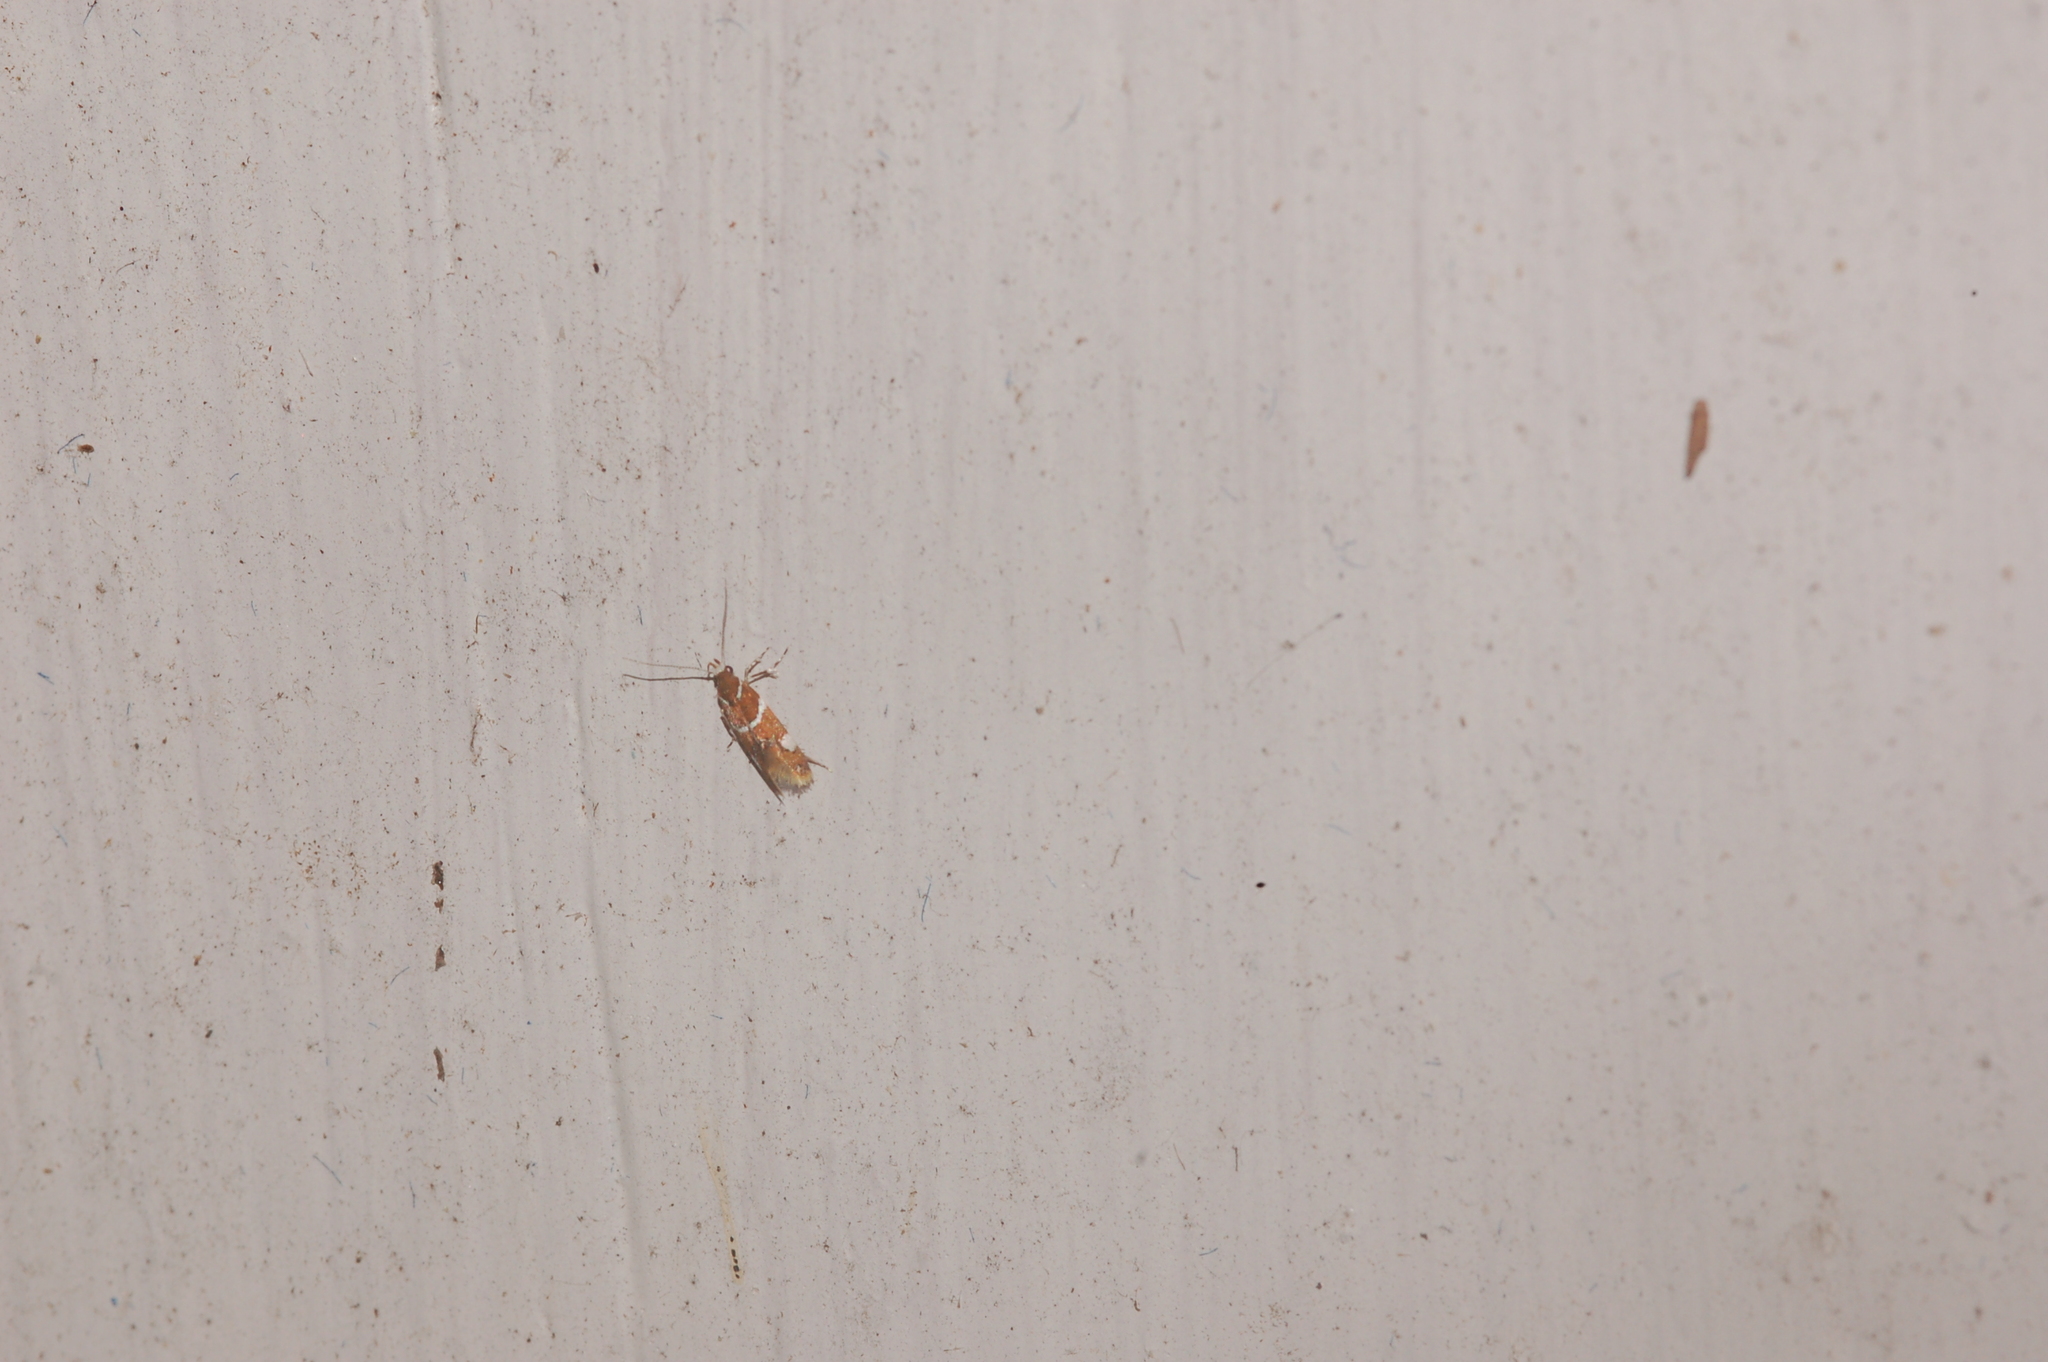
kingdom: Animalia
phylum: Arthropoda
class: Insecta
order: Lepidoptera
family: Oecophoridae
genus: Promalactis
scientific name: Promalactis suzukiella
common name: Moth
